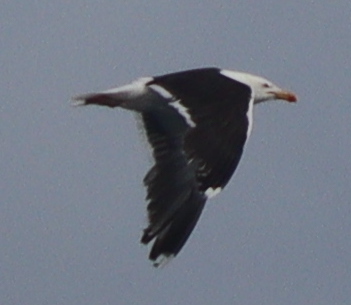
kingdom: Animalia
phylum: Chordata
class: Aves
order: Charadriiformes
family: Laridae
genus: Larus
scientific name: Larus marinus
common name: Great black-backed gull
